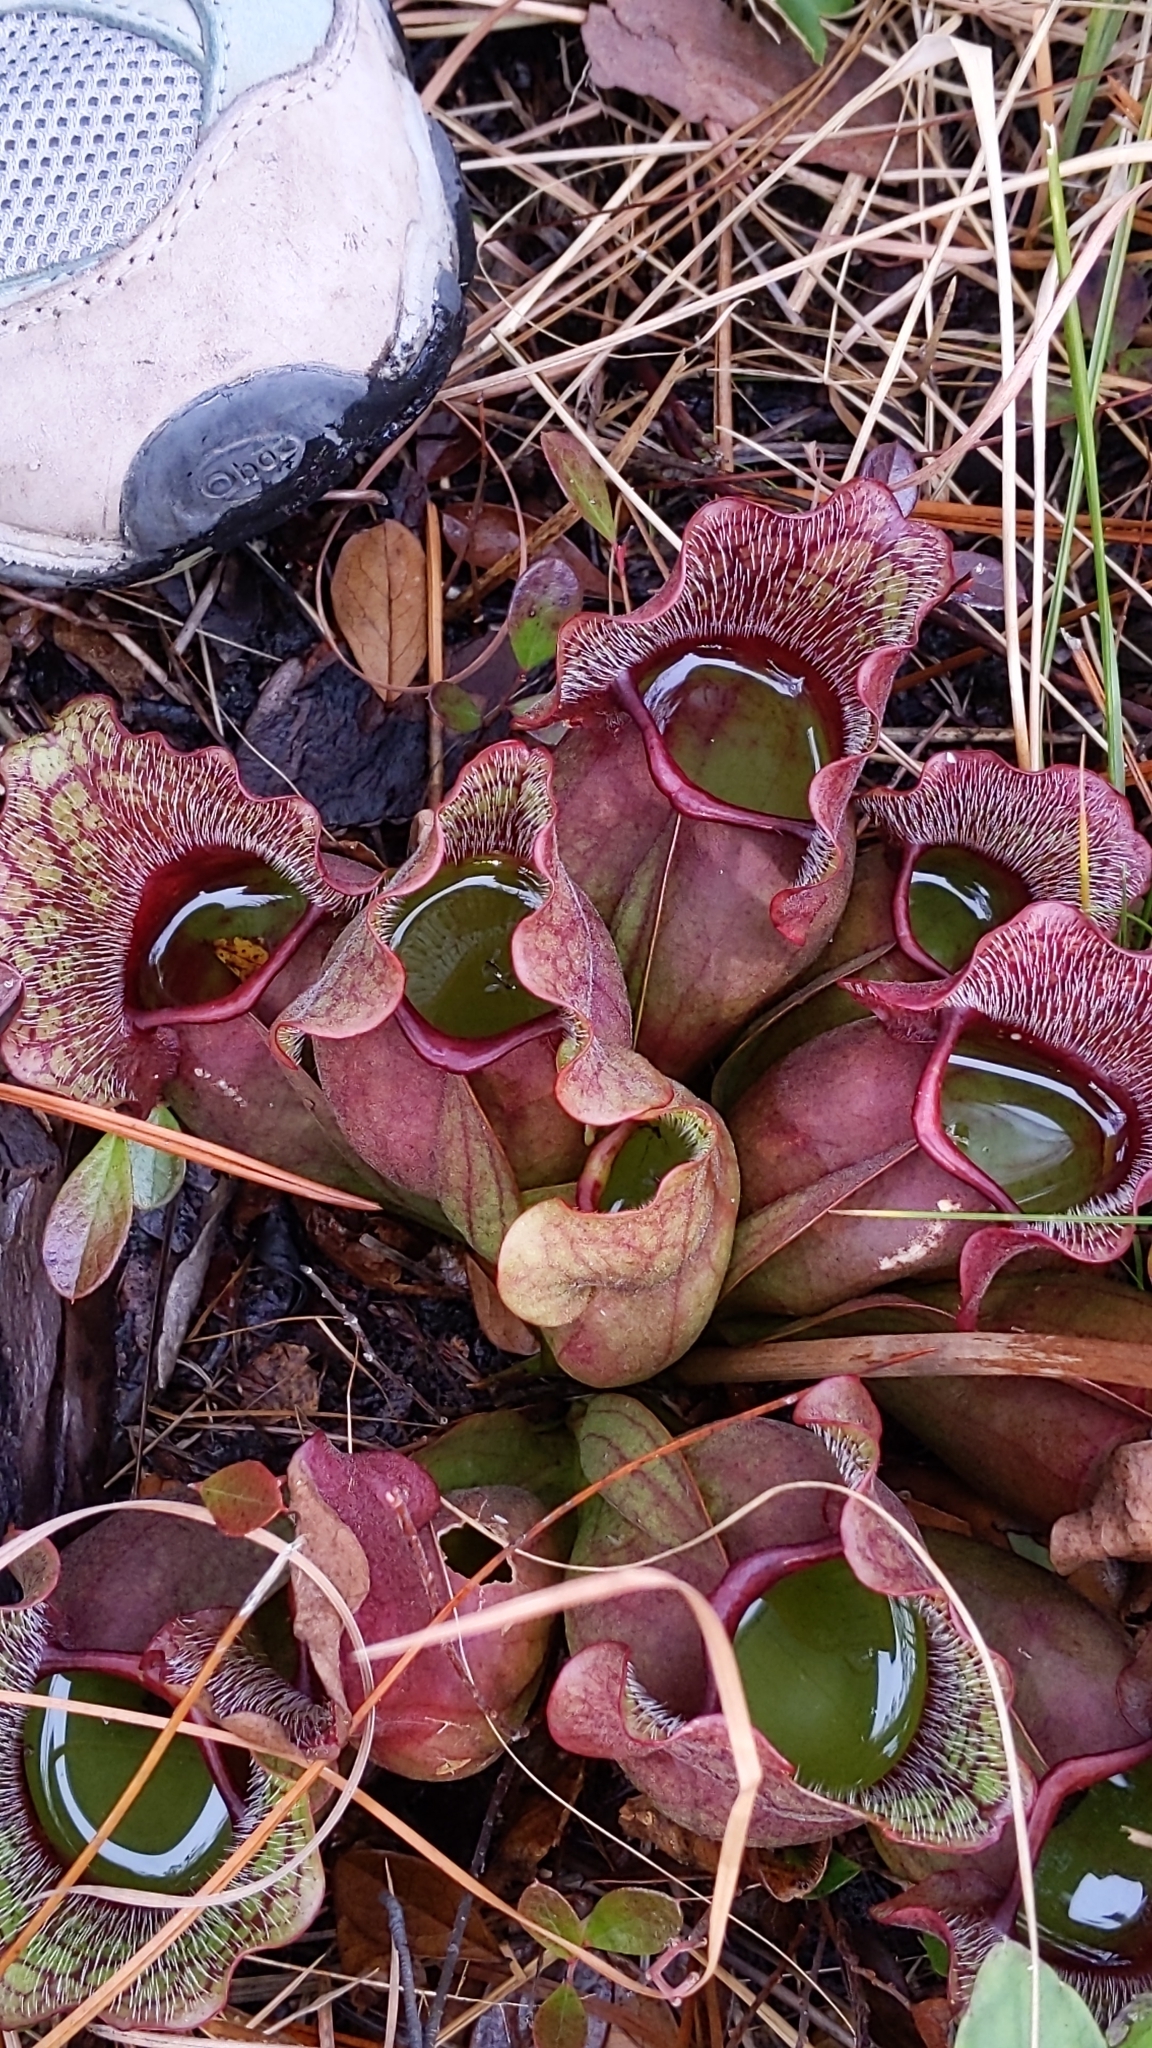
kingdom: Plantae
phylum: Tracheophyta
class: Magnoliopsida
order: Ericales
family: Sarraceniaceae
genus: Sarracenia
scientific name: Sarracenia purpurea
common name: Pitcherplant
